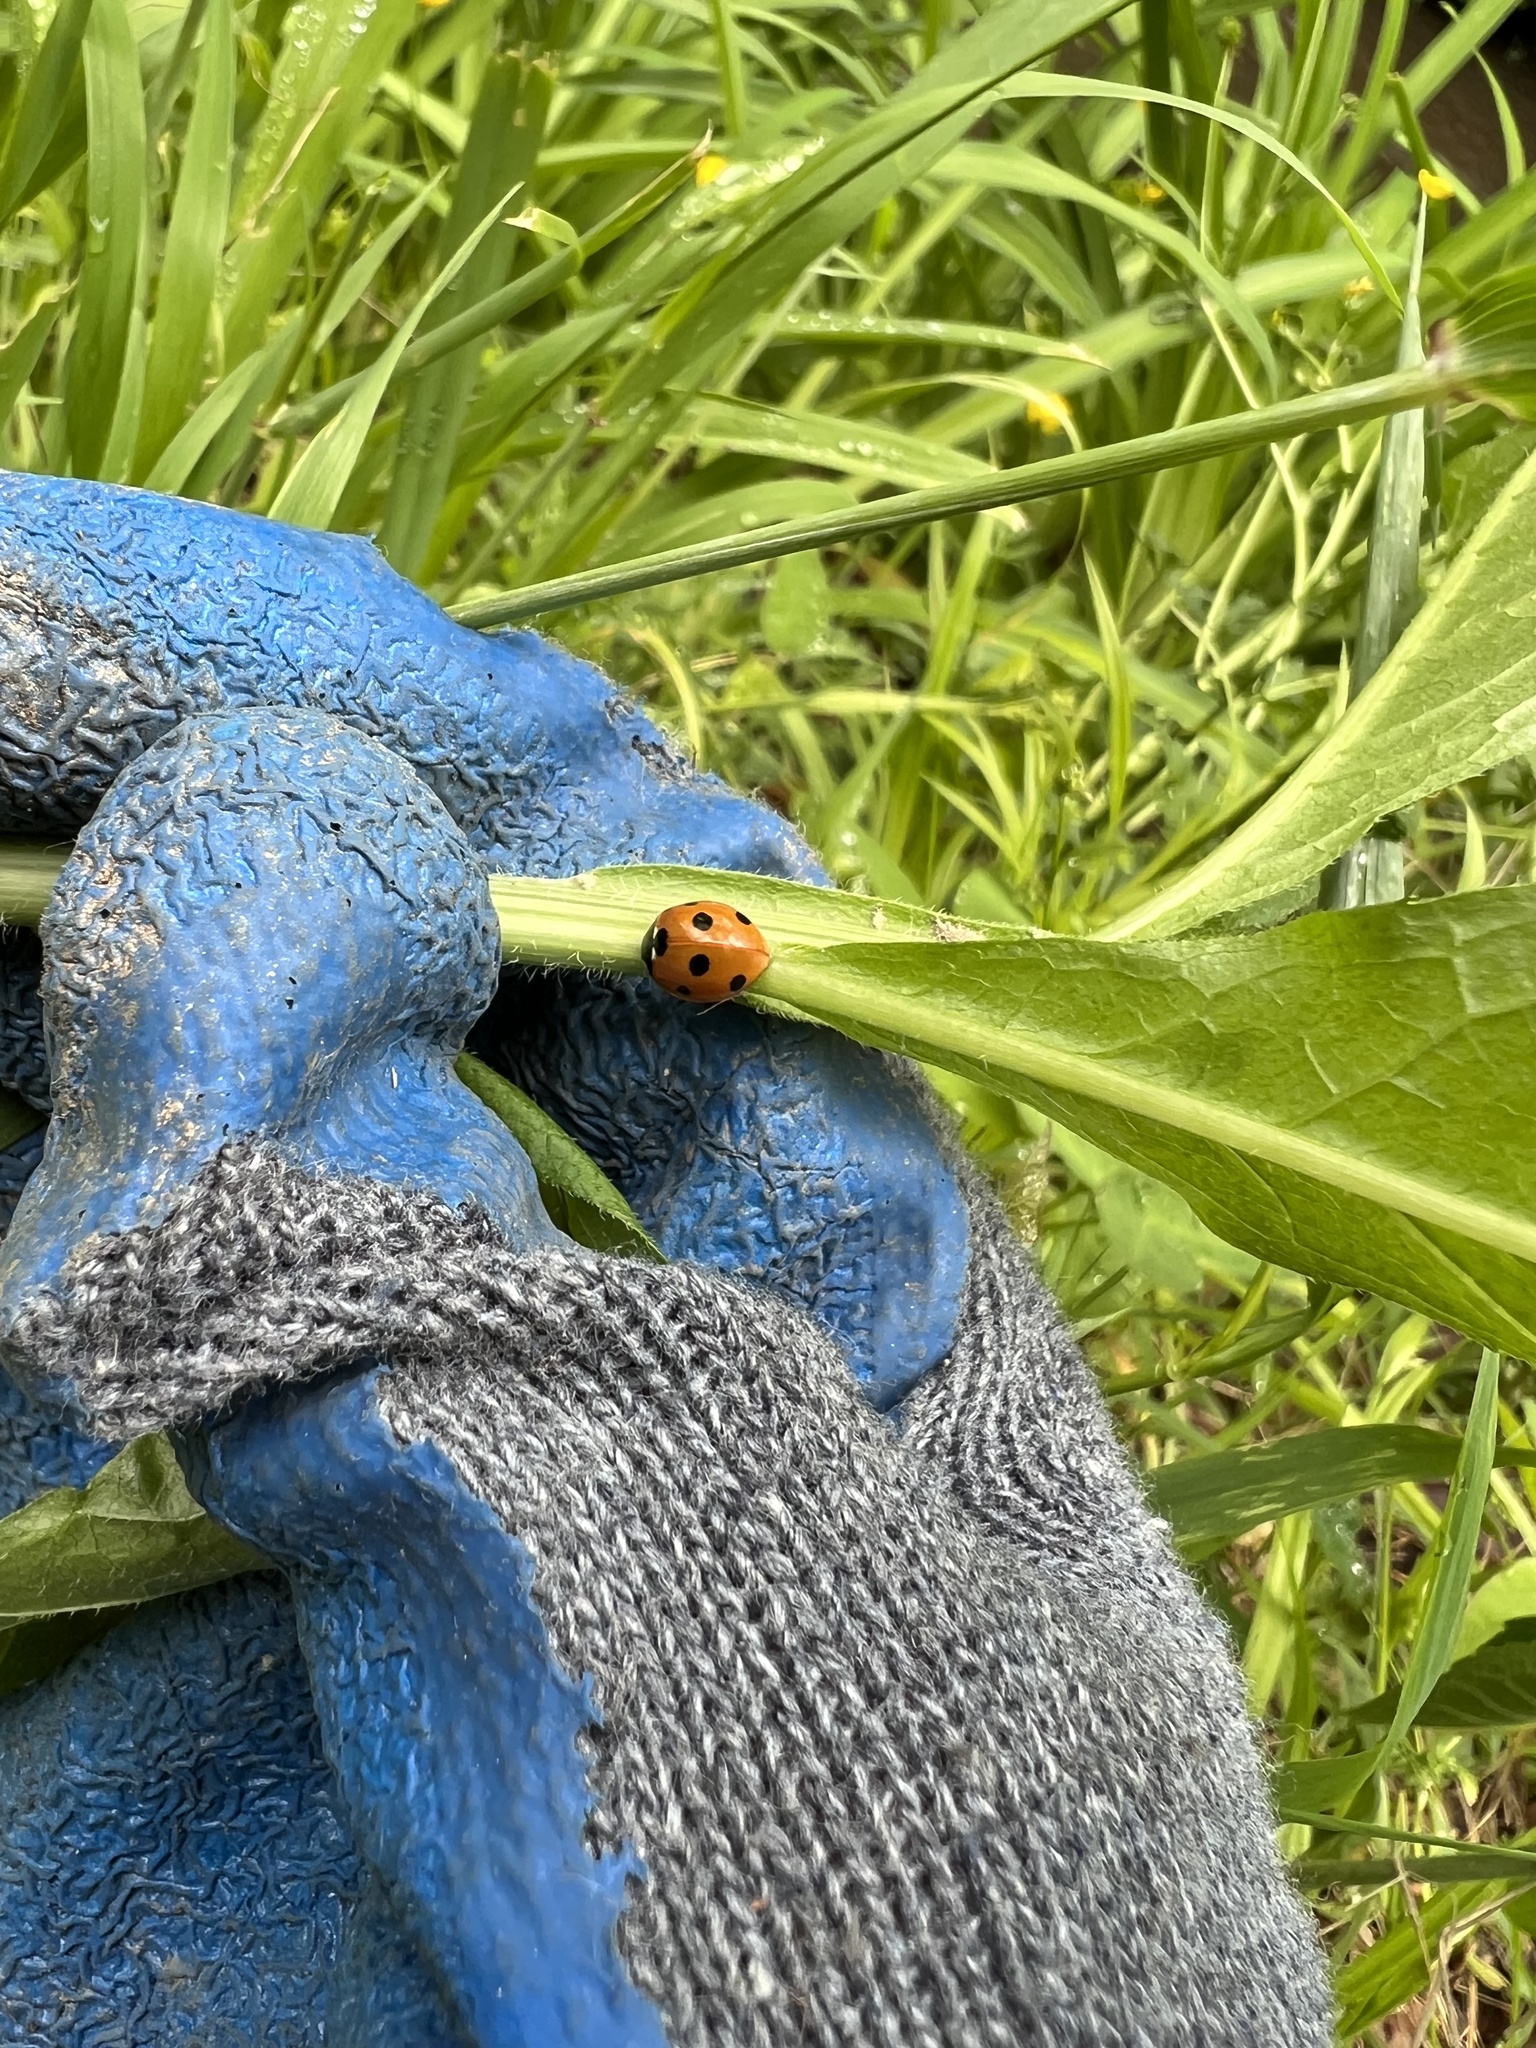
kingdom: Animalia
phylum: Arthropoda
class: Insecta
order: Coleoptera
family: Coccinellidae
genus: Coccinella
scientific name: Coccinella septempunctata
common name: Sevenspotted lady beetle
